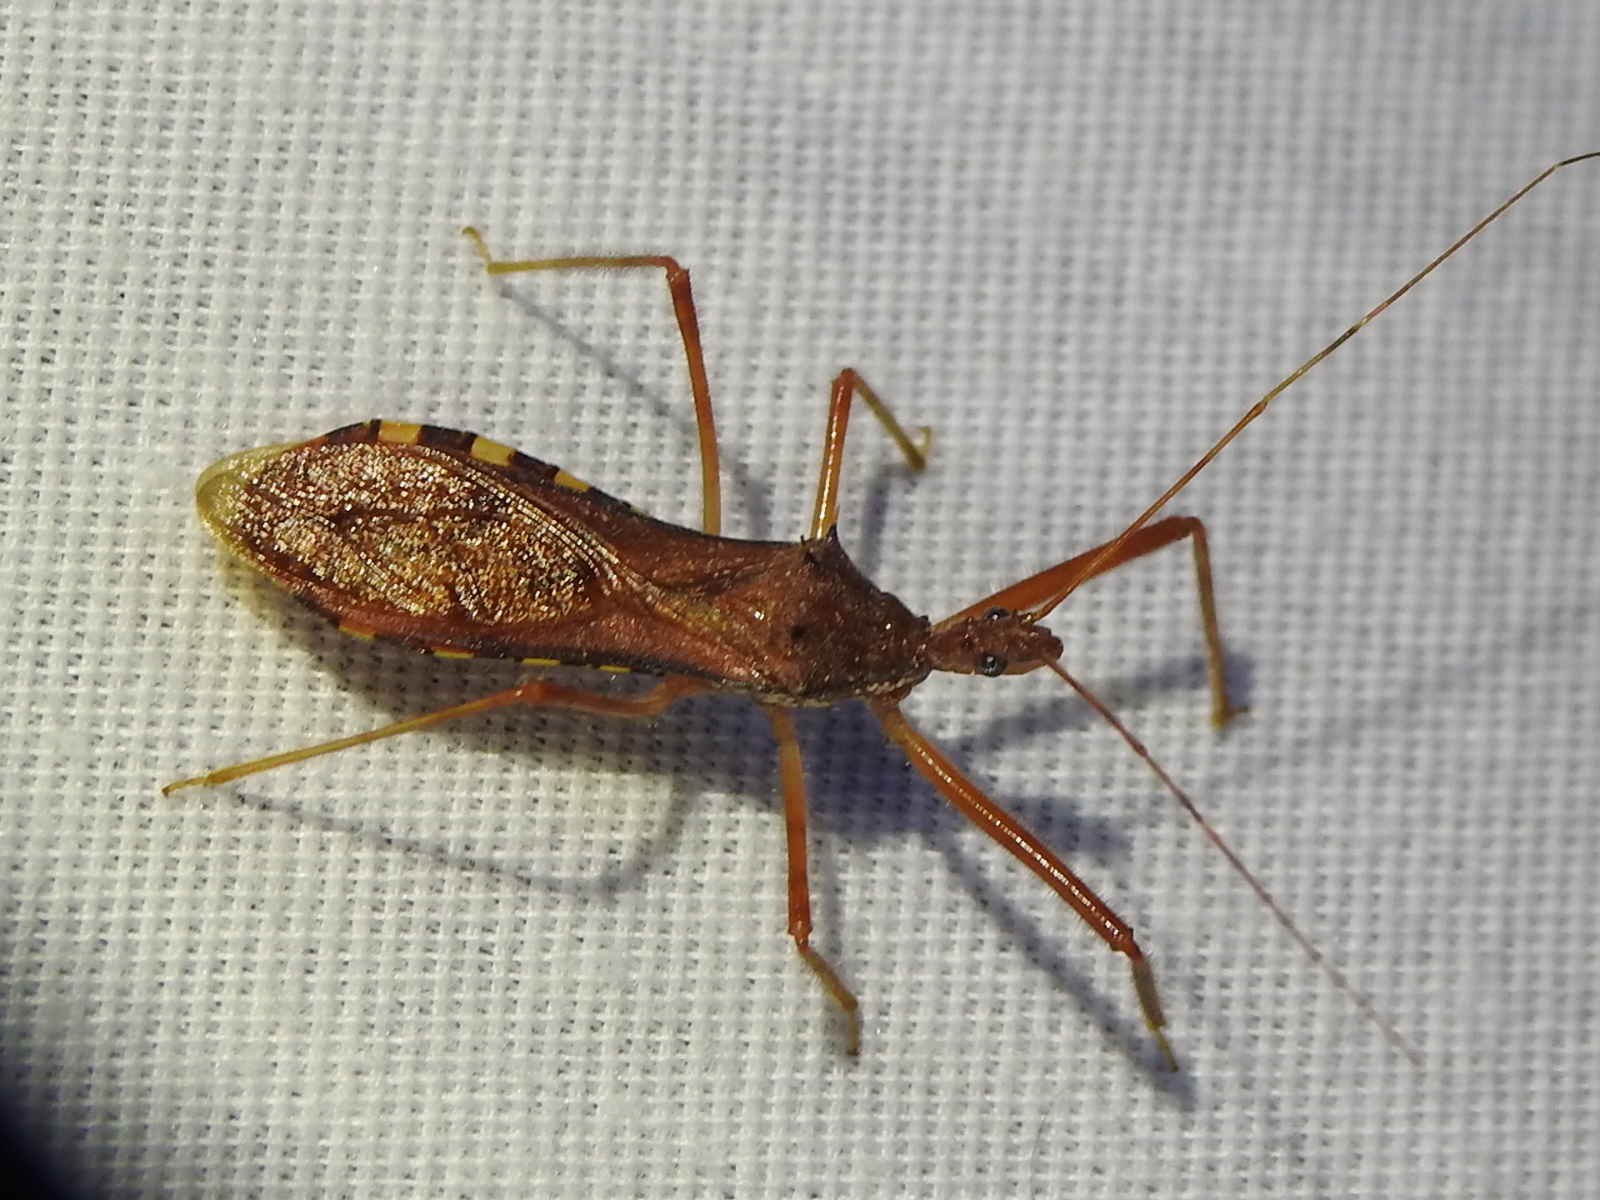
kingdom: Animalia
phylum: Arthropoda
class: Insecta
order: Hemiptera
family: Reduviidae
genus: Rocconota
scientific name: Rocconota annulicornis
